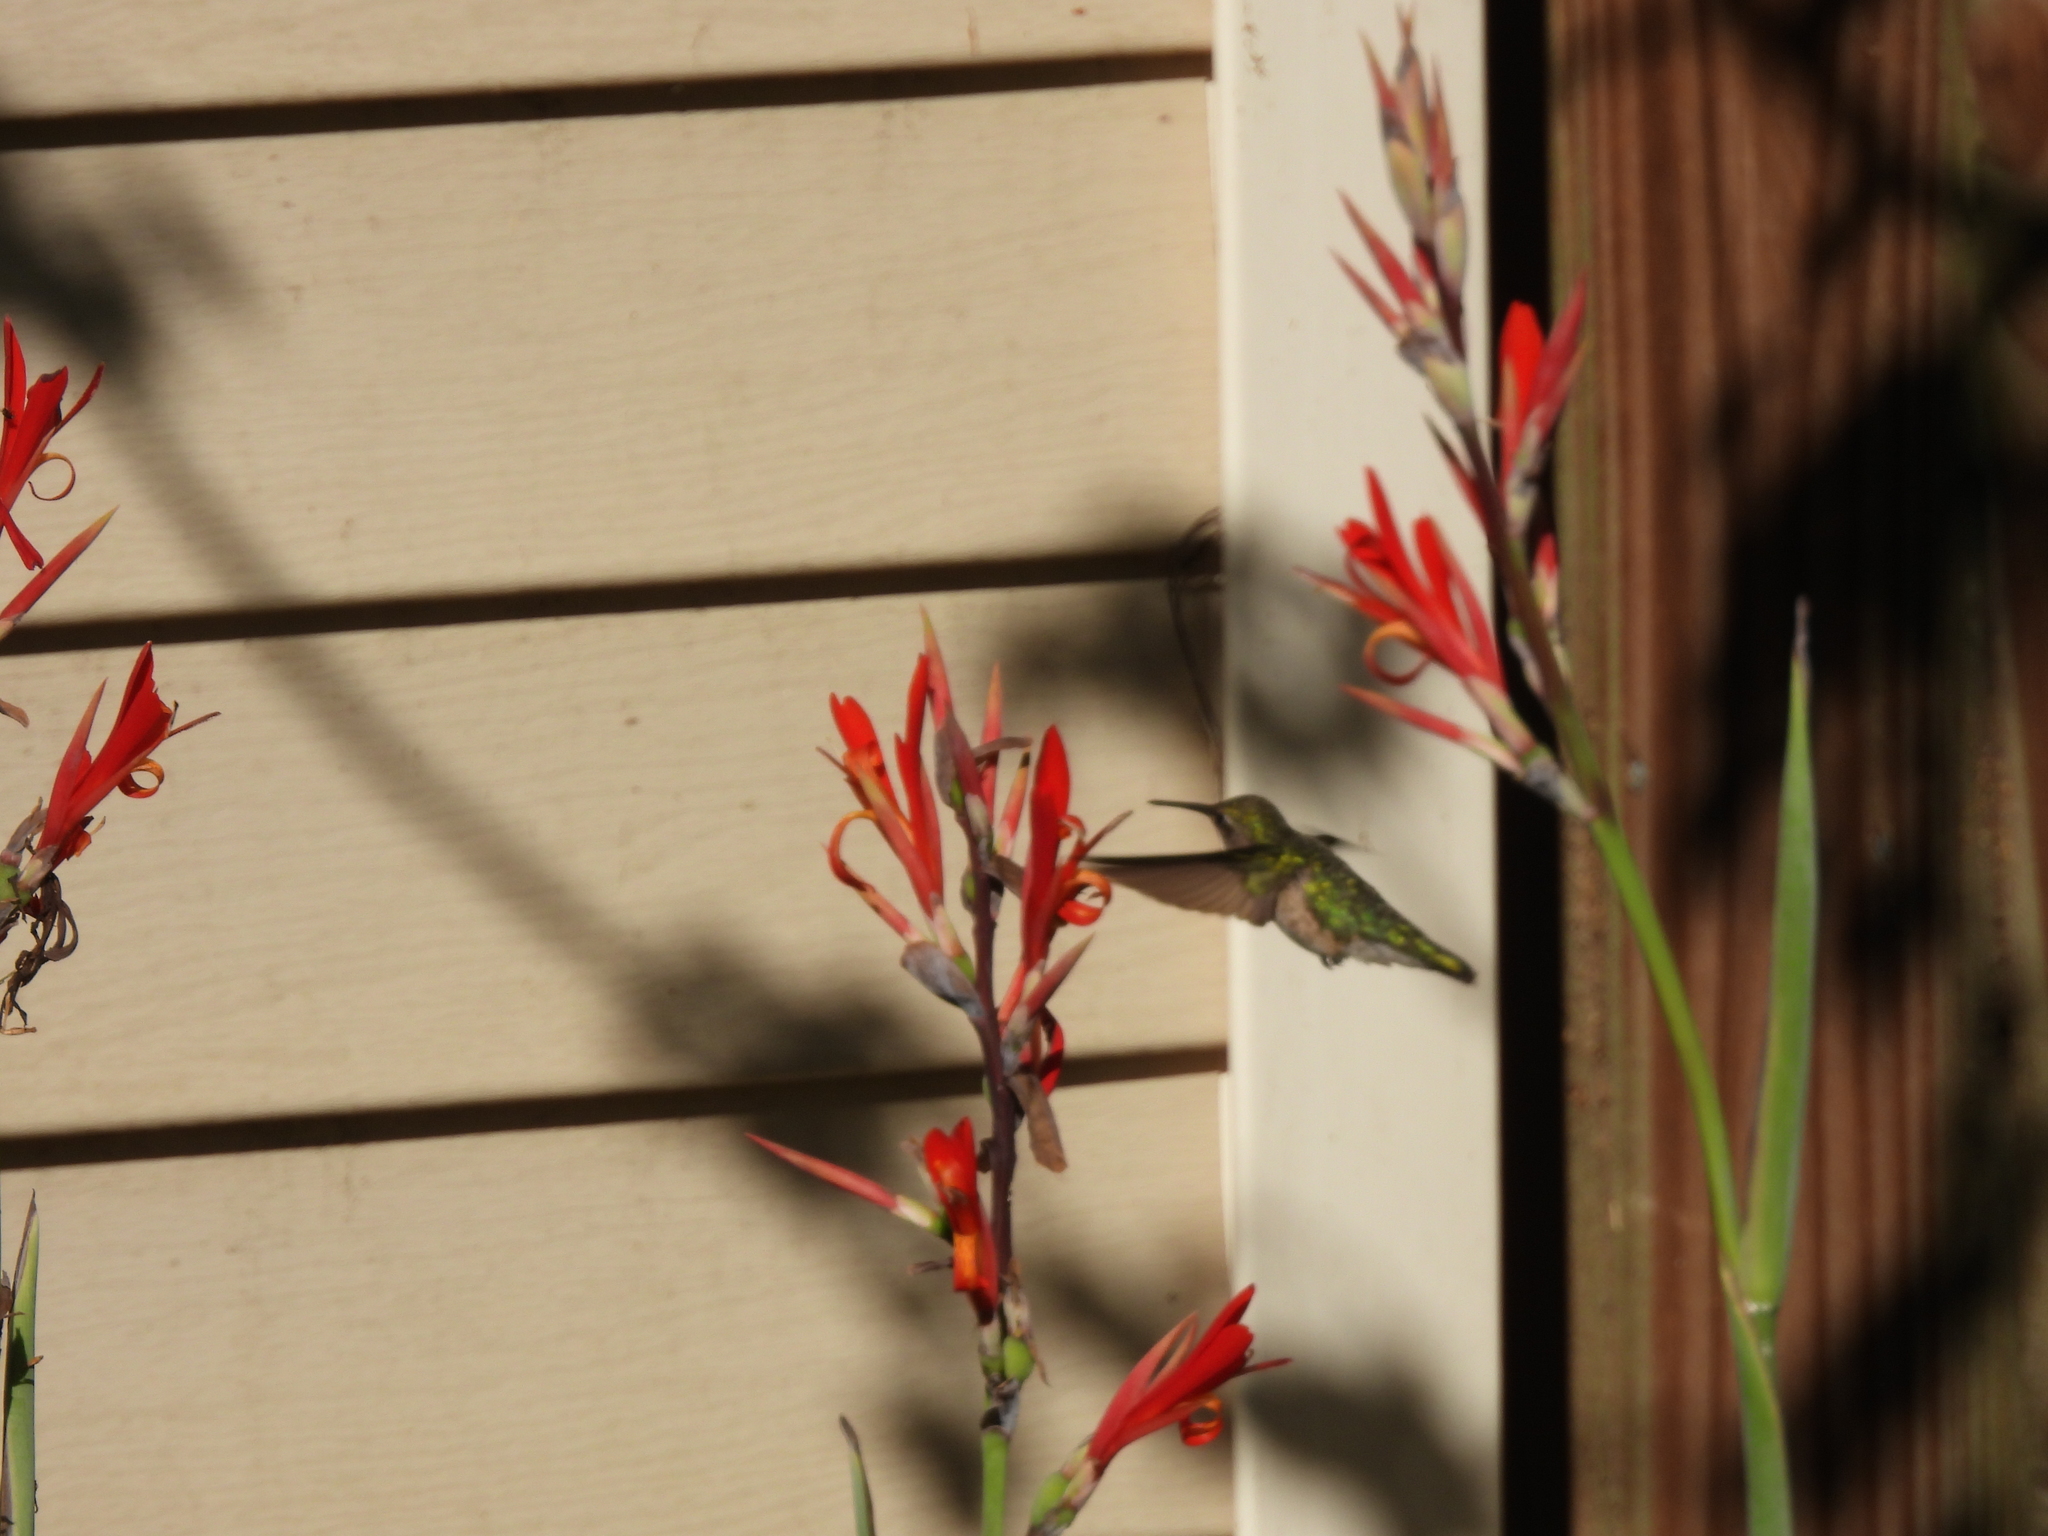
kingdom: Animalia
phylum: Chordata
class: Aves
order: Apodiformes
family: Trochilidae
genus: Archilochus
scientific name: Archilochus colubris
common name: Ruby-throated hummingbird
